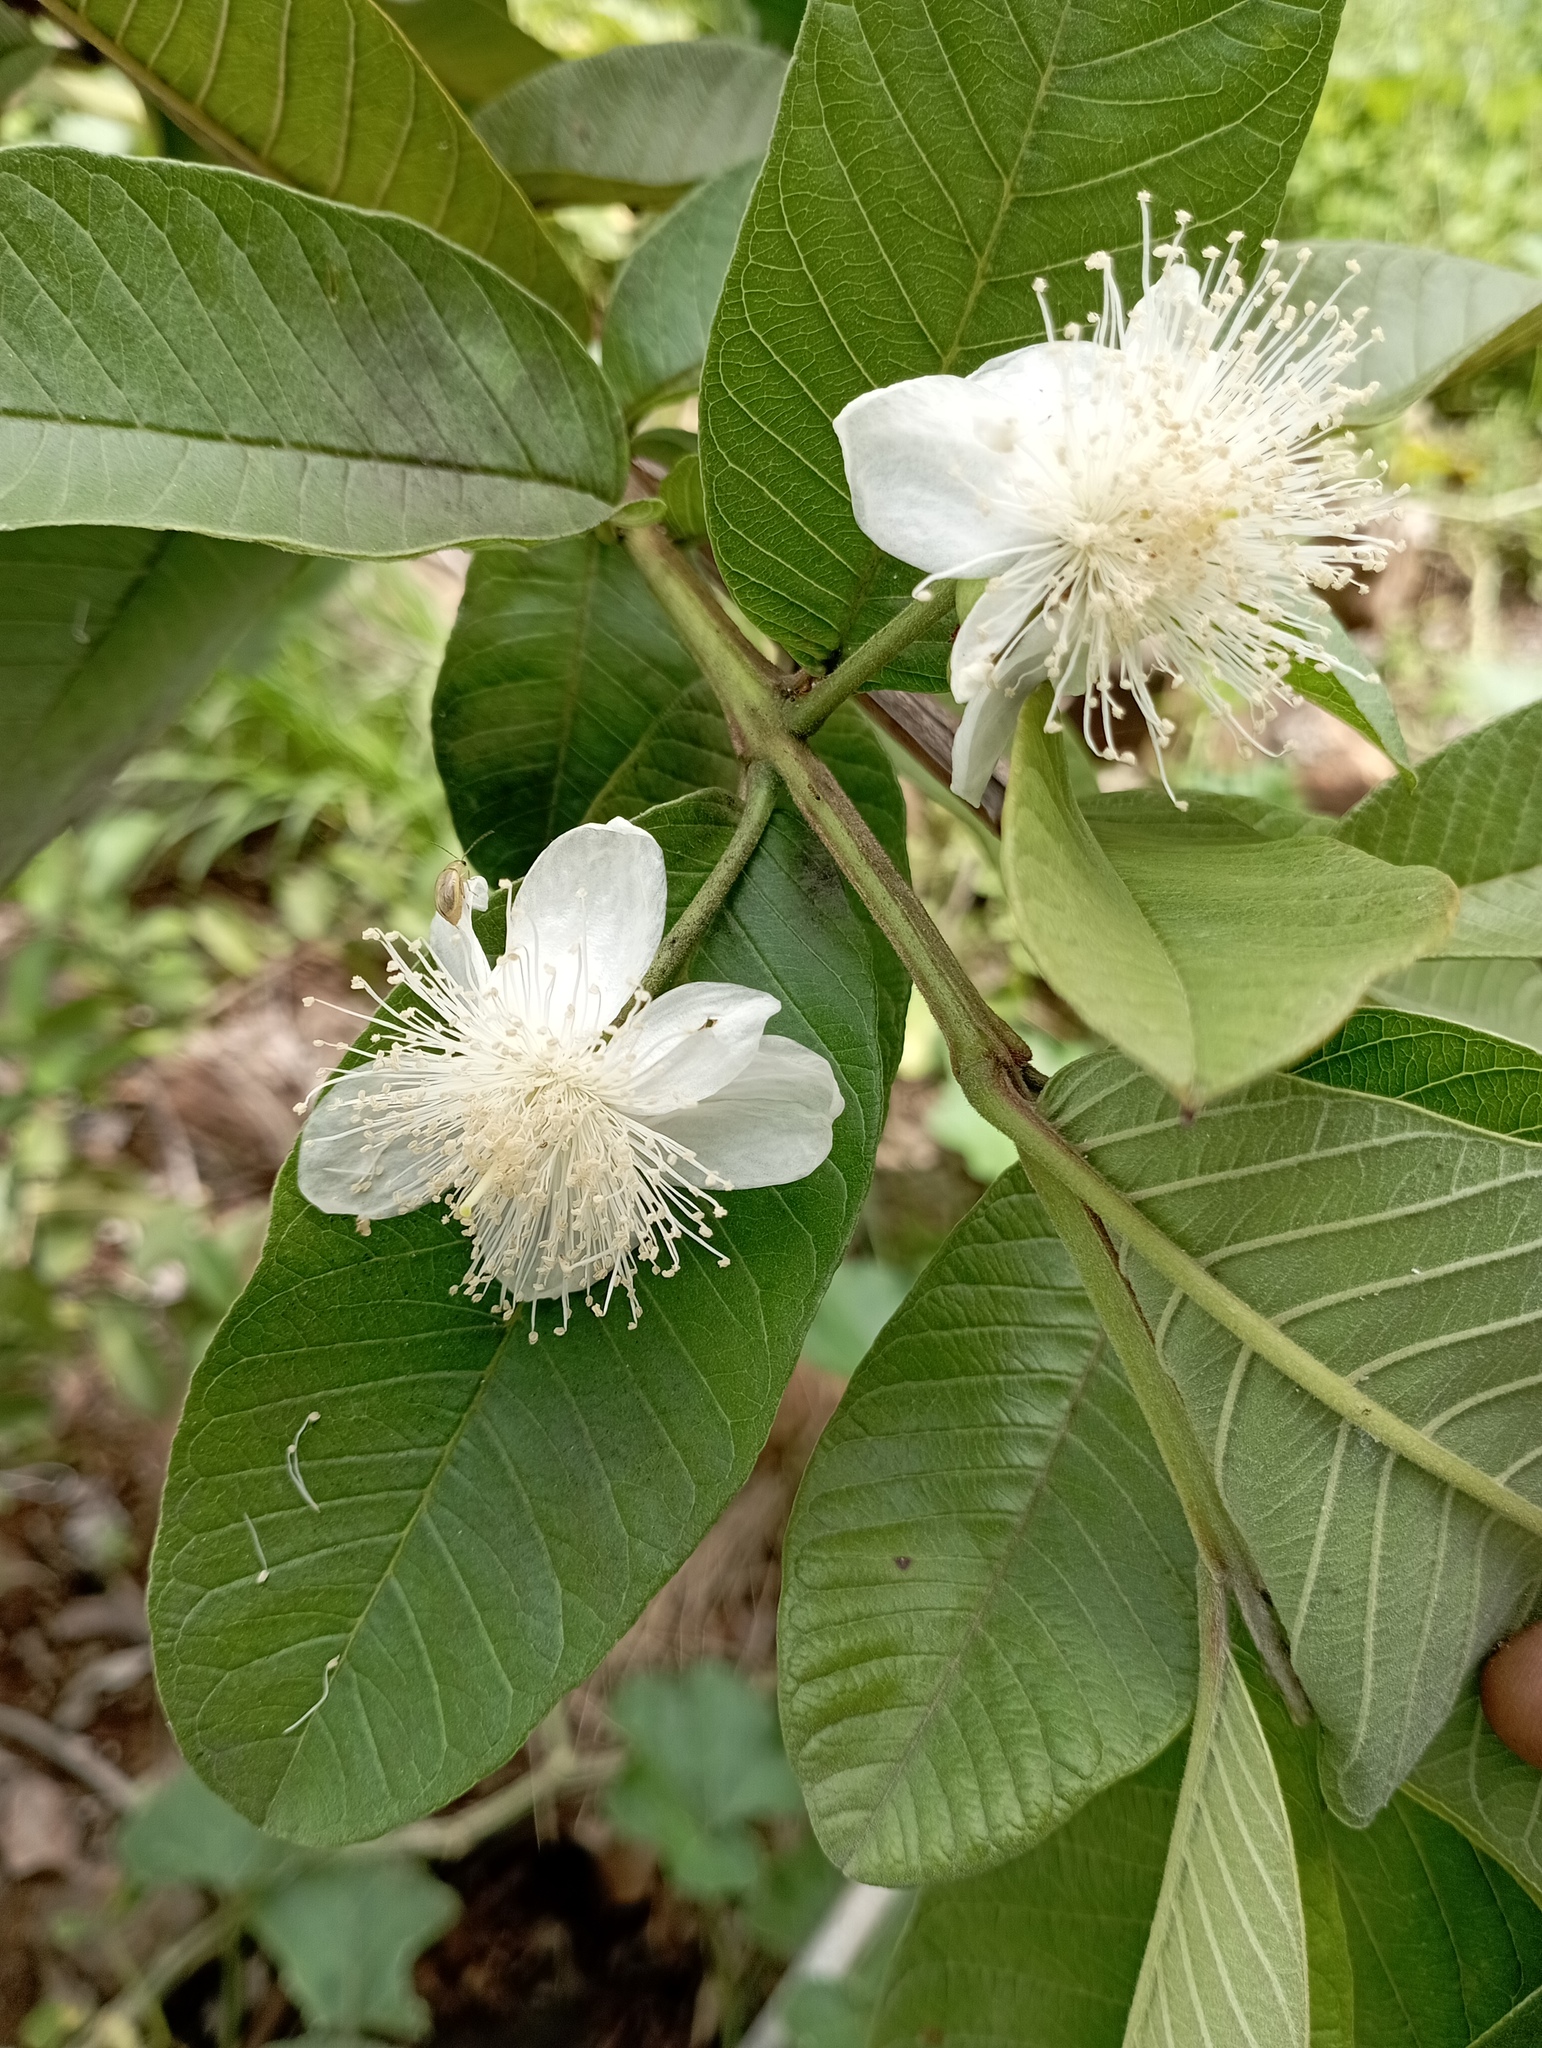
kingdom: Plantae
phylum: Tracheophyta
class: Magnoliopsida
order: Myrtales
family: Myrtaceae
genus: Psidium
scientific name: Psidium guajava
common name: Guava
